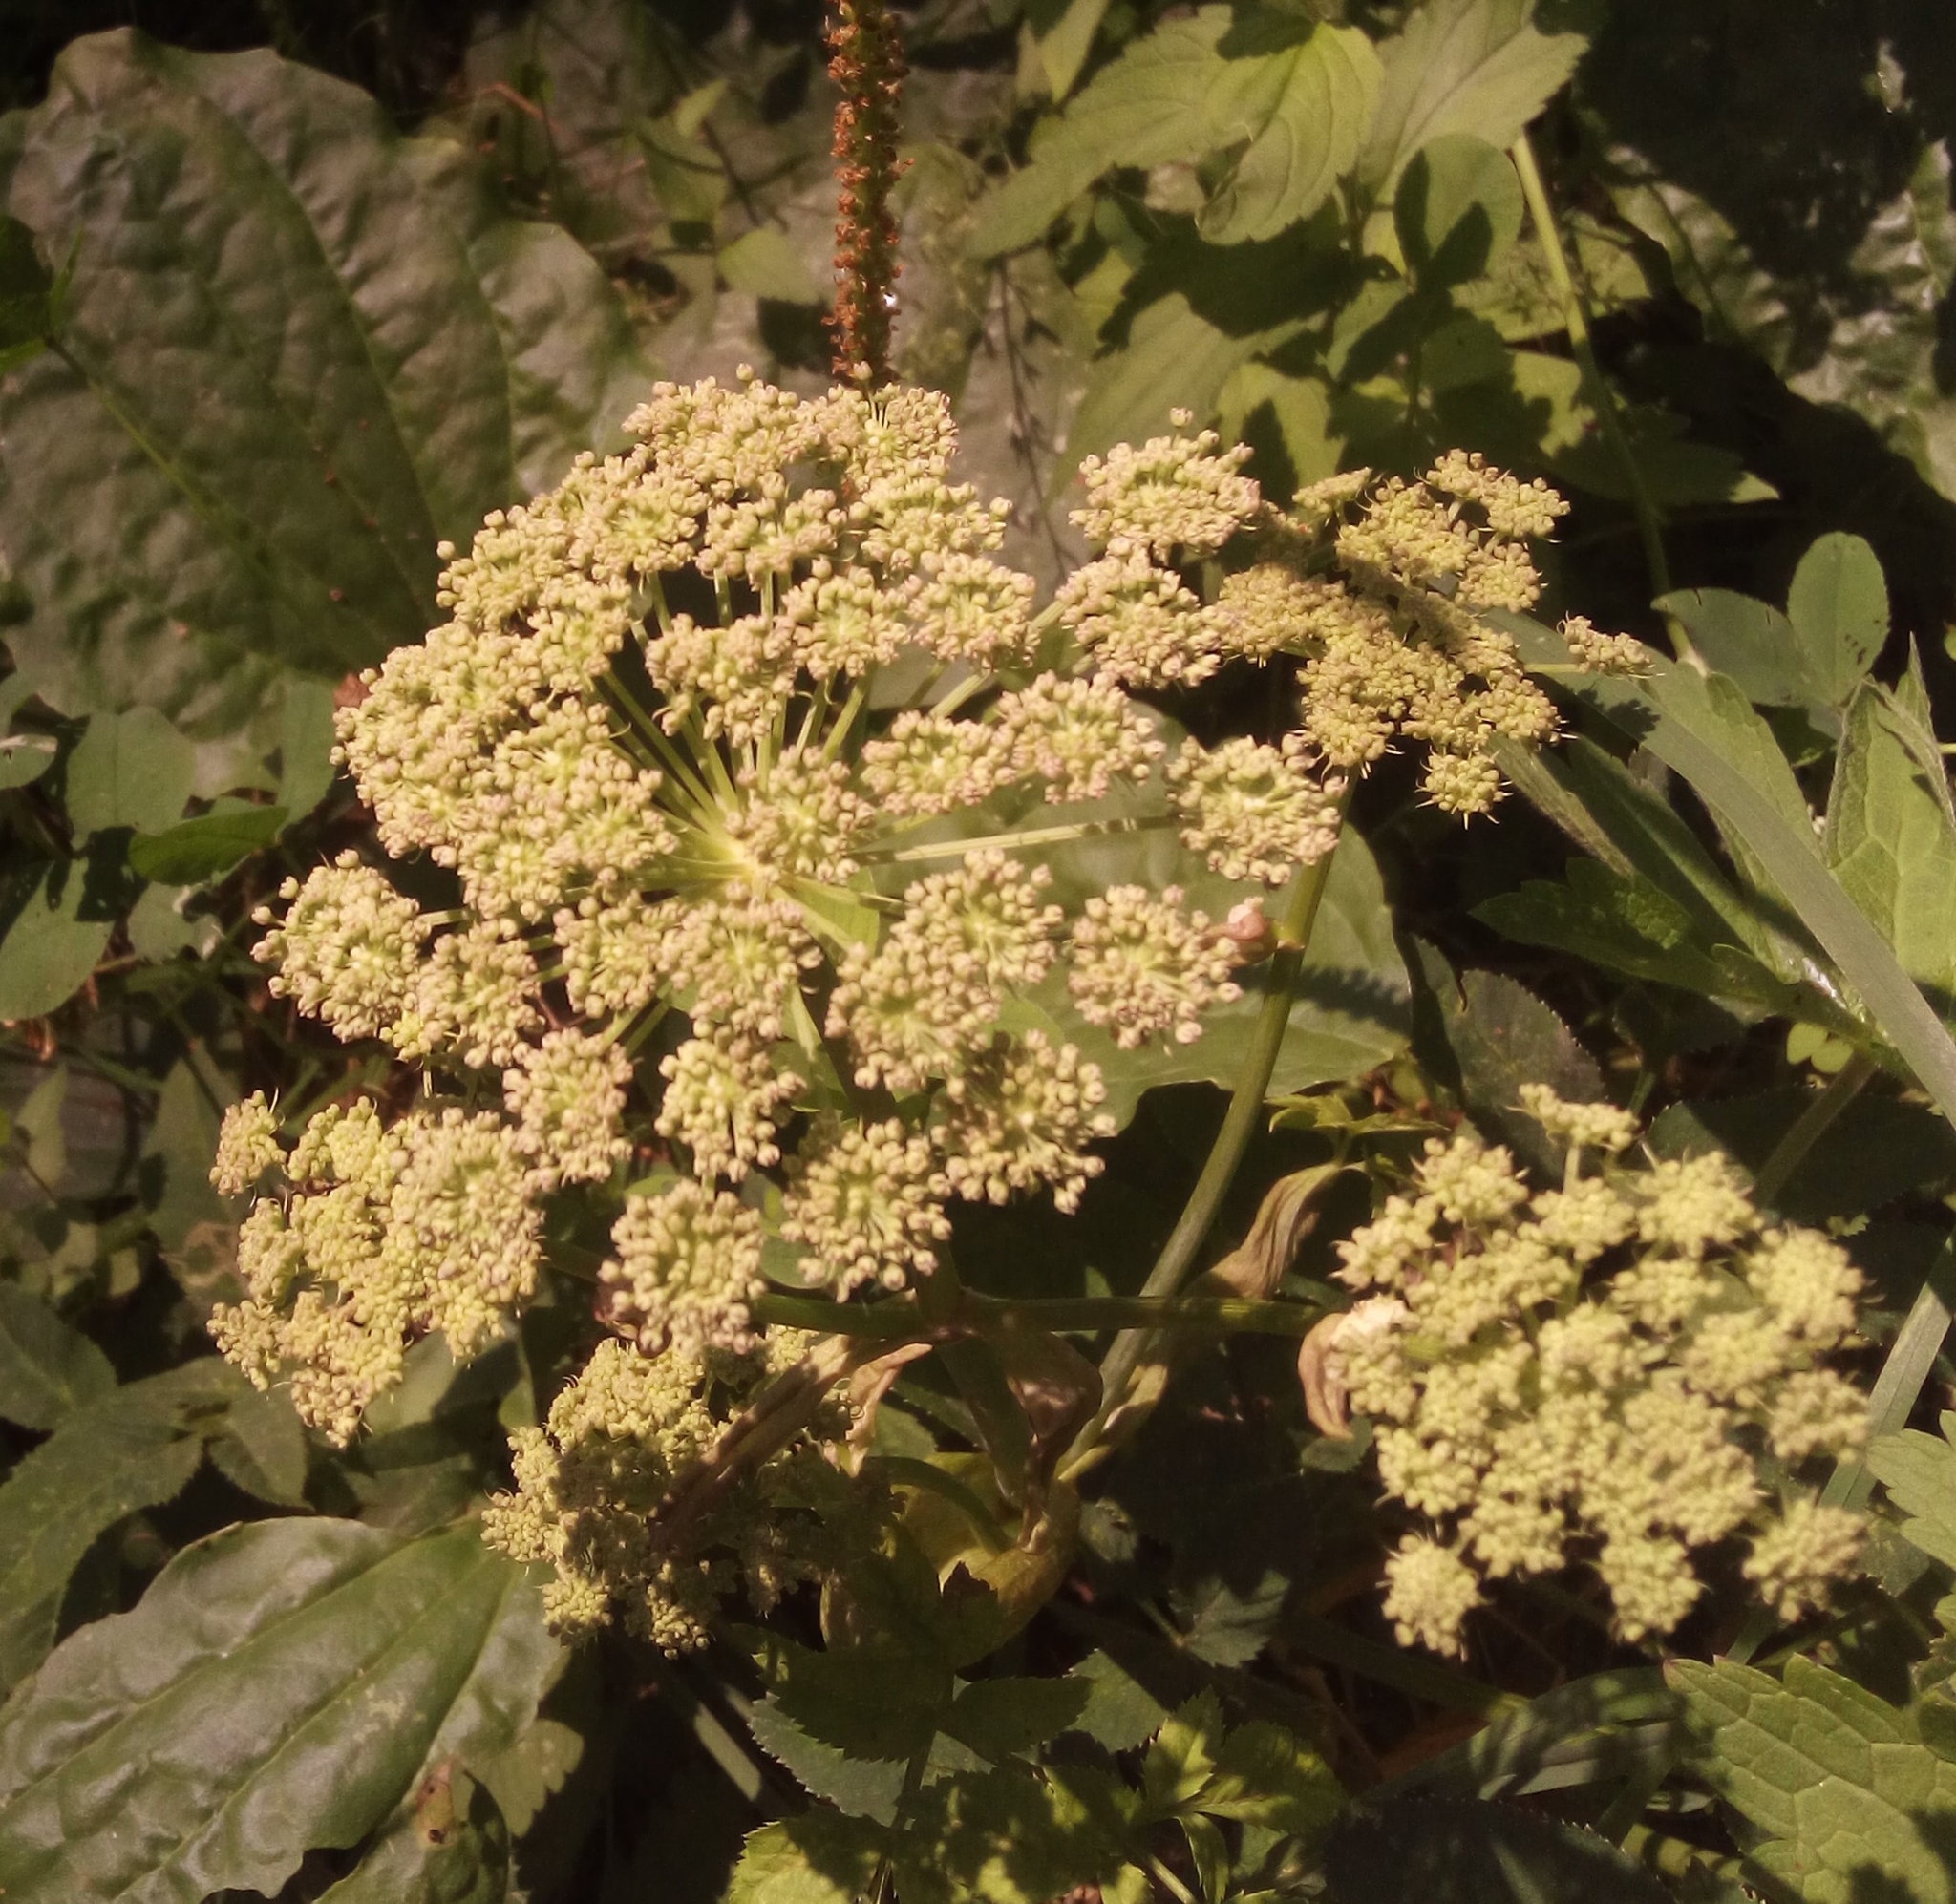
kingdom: Plantae
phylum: Tracheophyta
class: Magnoliopsida
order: Apiales
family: Apiaceae
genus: Angelica
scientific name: Angelica sylvestris
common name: Wild angelica
